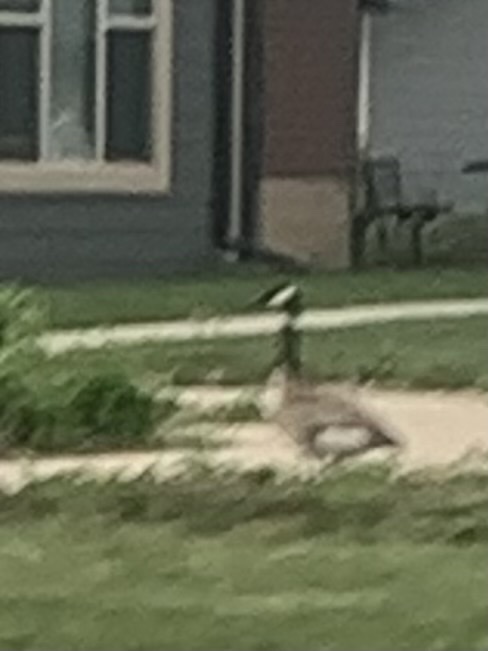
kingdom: Animalia
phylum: Chordata
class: Aves
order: Anseriformes
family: Anatidae
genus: Branta
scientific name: Branta canadensis
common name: Canada goose
